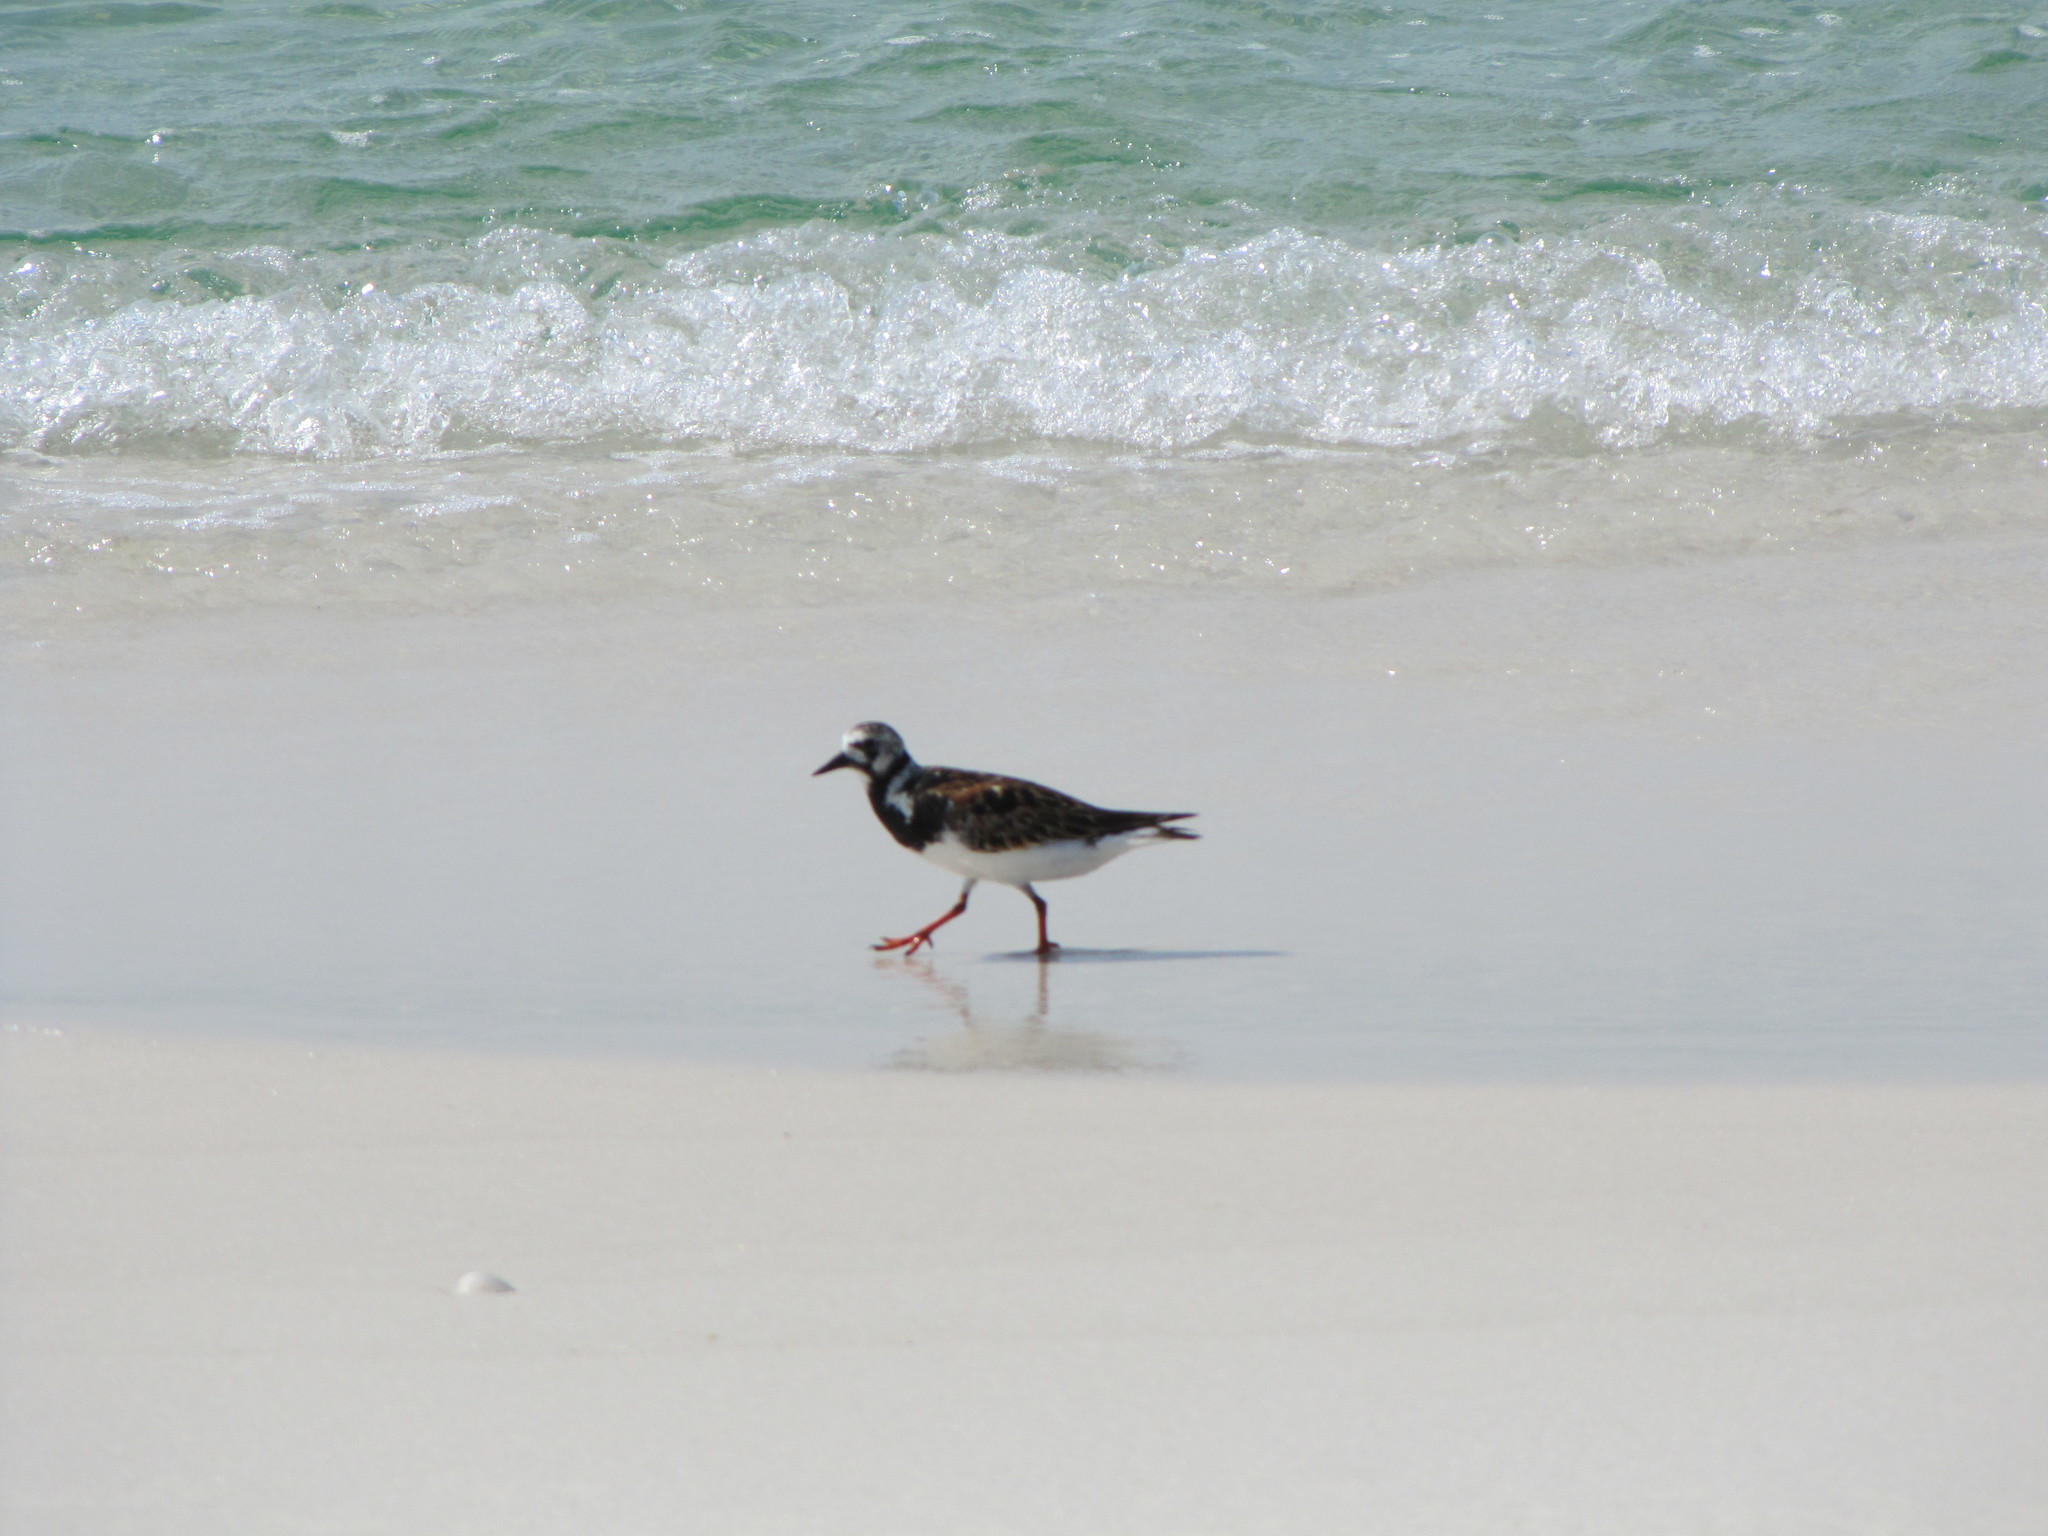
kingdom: Animalia
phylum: Chordata
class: Aves
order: Charadriiformes
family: Scolopacidae
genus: Arenaria
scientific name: Arenaria interpres
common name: Ruddy turnstone
